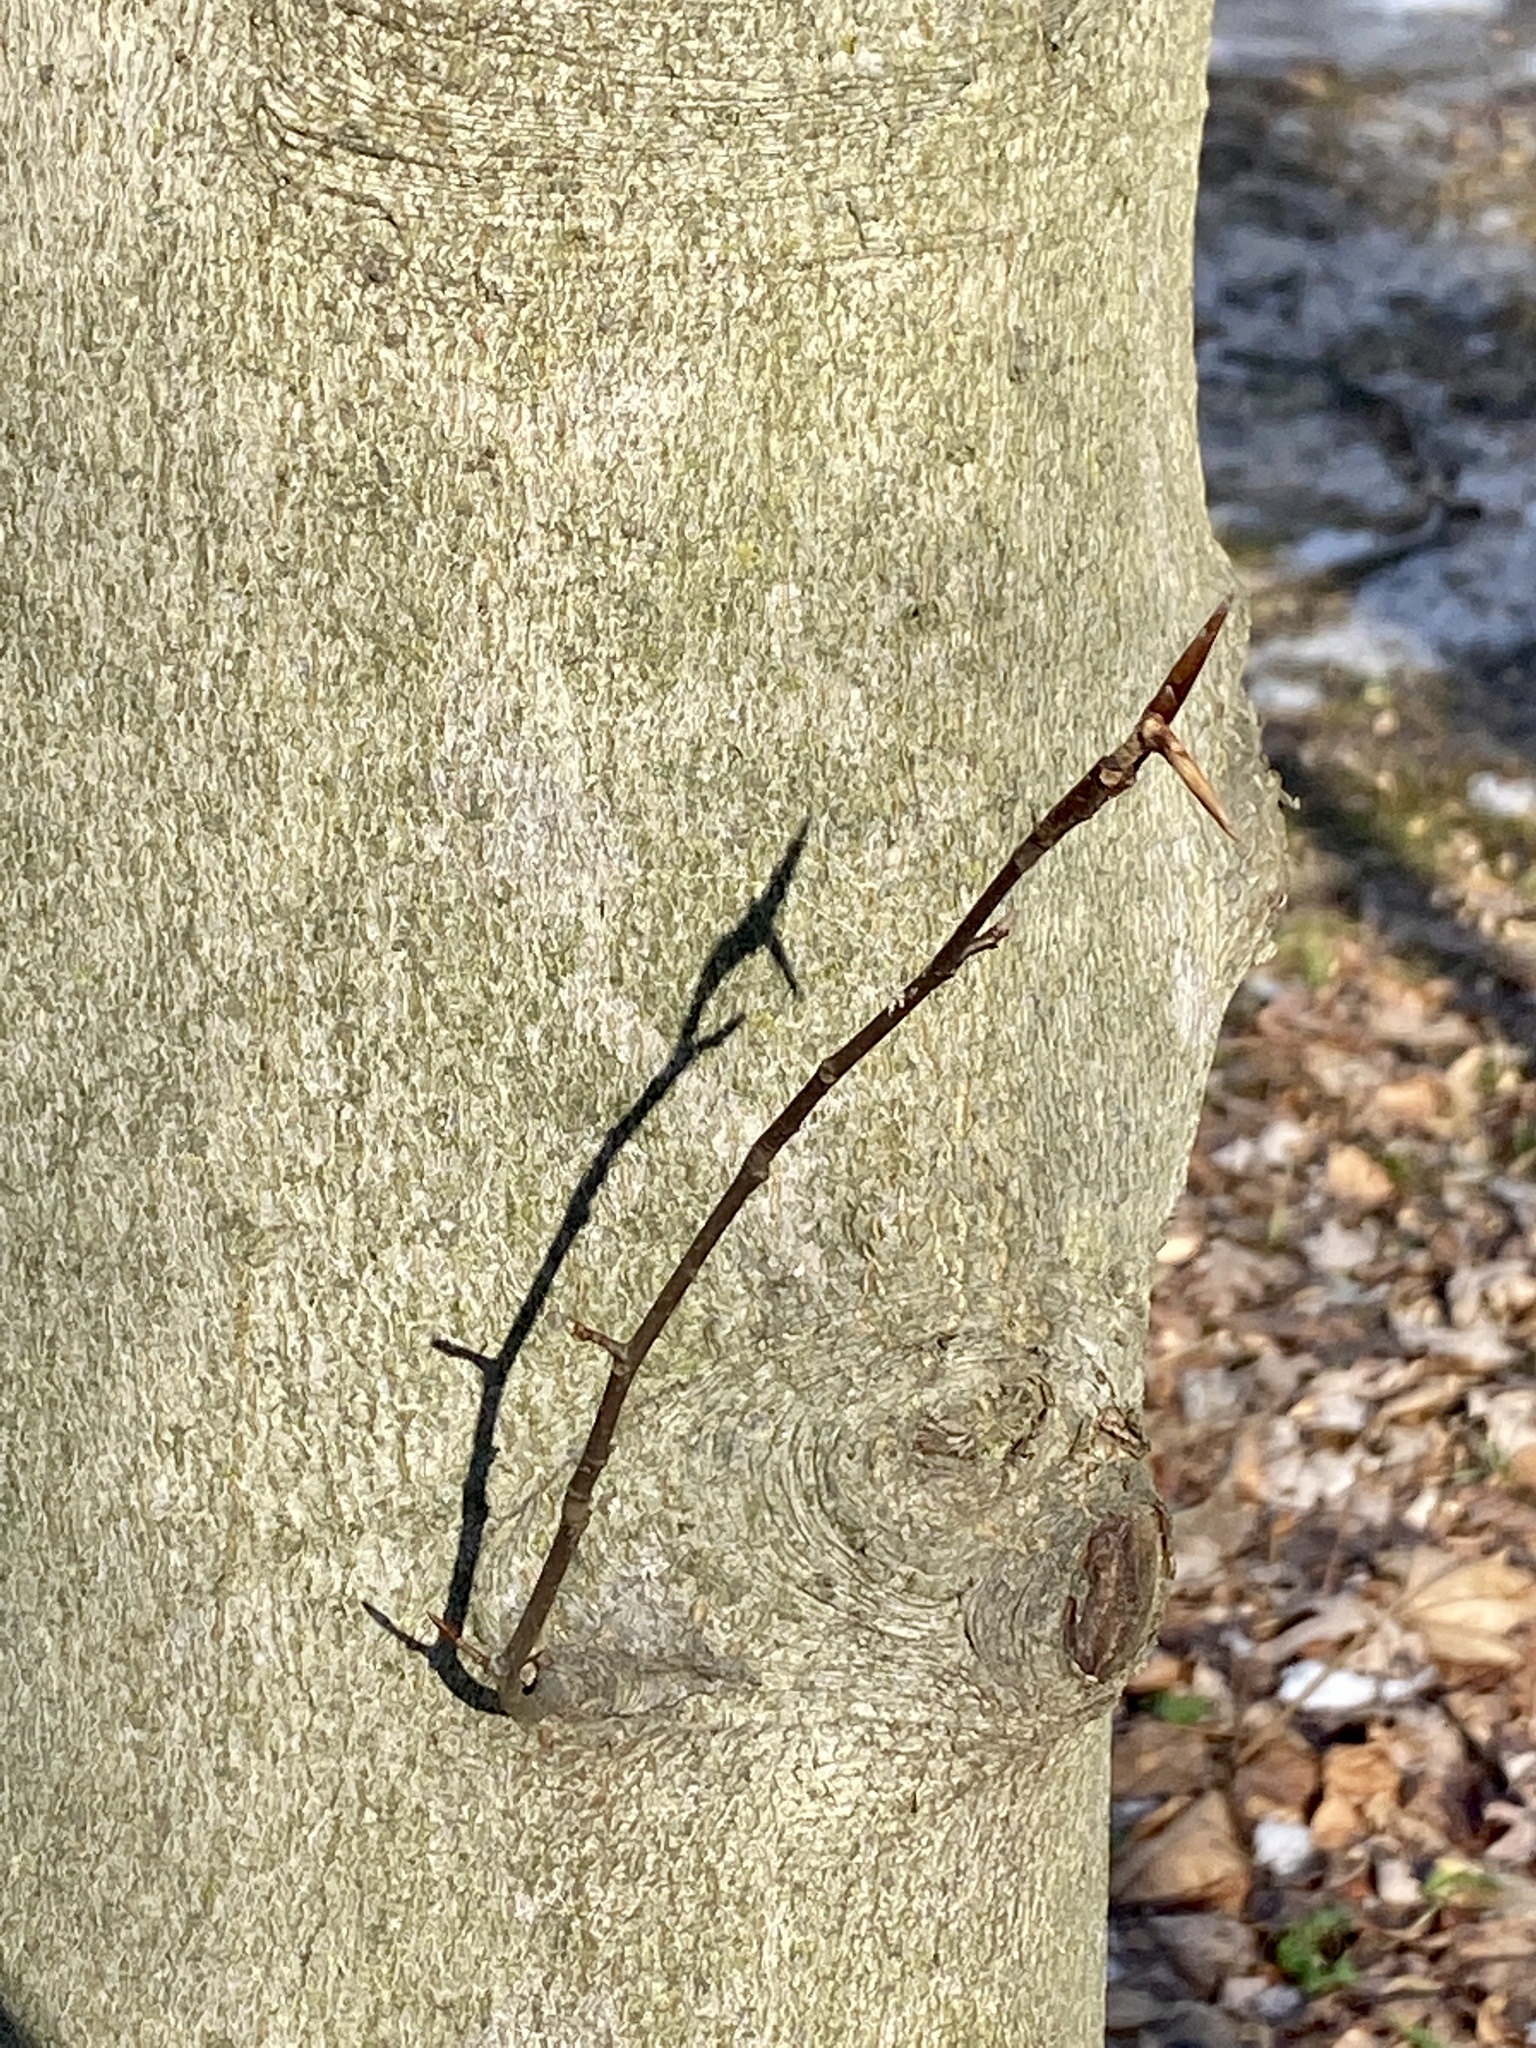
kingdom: Plantae
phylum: Tracheophyta
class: Magnoliopsida
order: Fagales
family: Fagaceae
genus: Fagus
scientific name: Fagus grandifolia
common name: American beech
